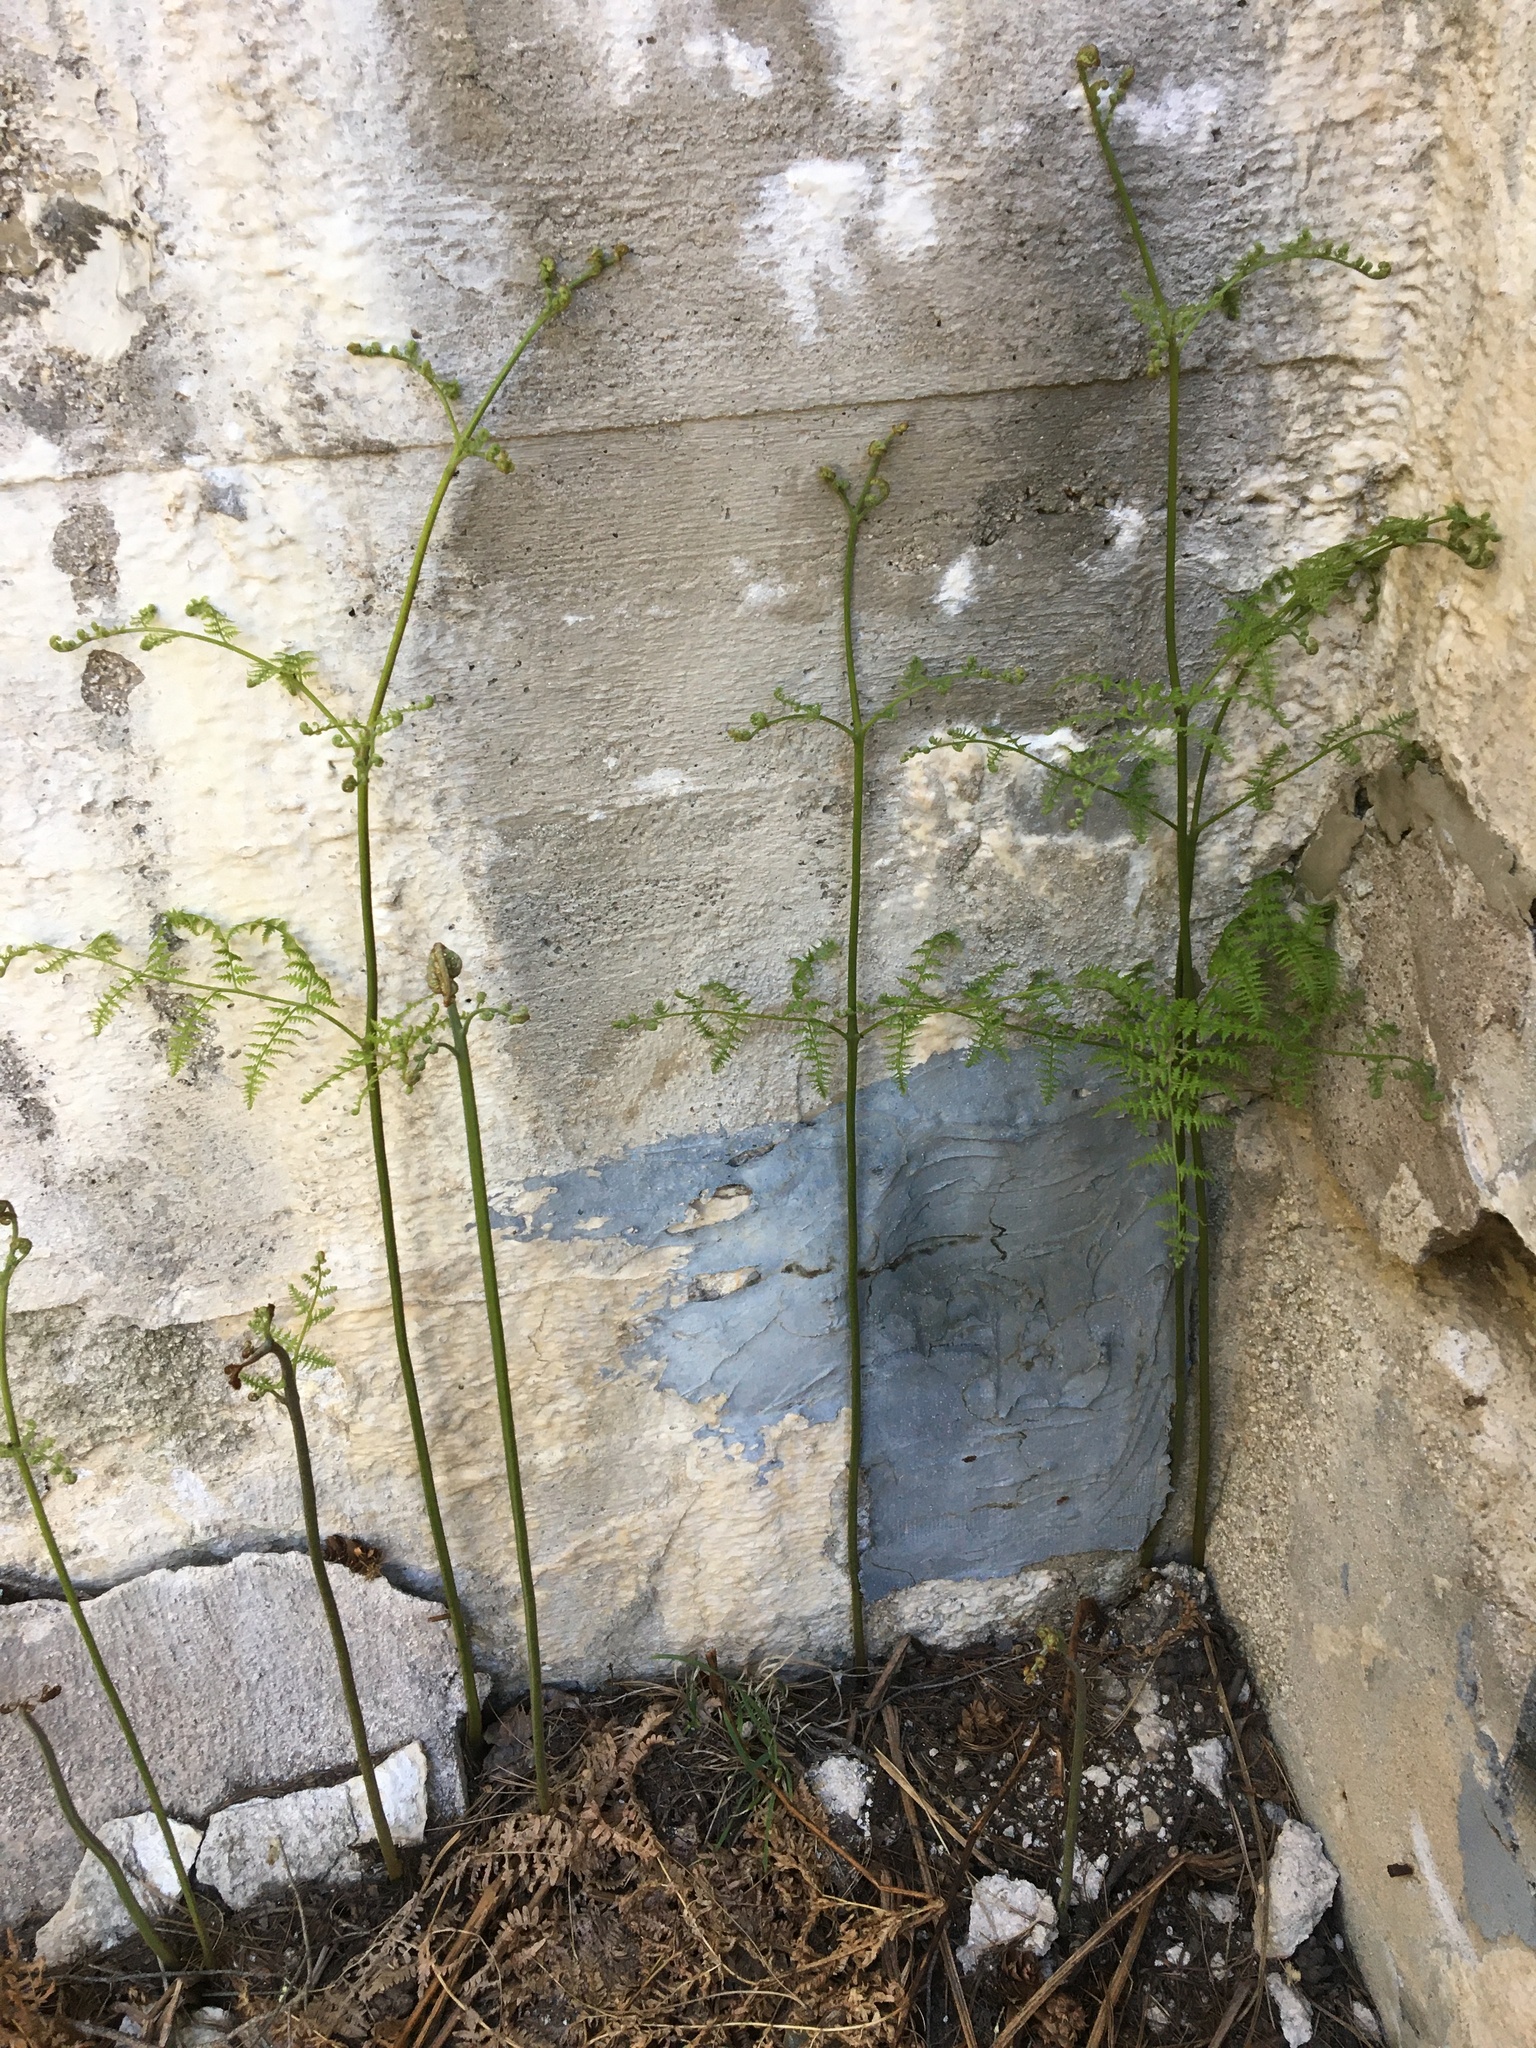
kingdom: Plantae
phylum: Tracheophyta
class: Polypodiopsida
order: Polypodiales
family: Dennstaedtiaceae
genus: Pteridium
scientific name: Pteridium aquilinum
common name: Bracken
